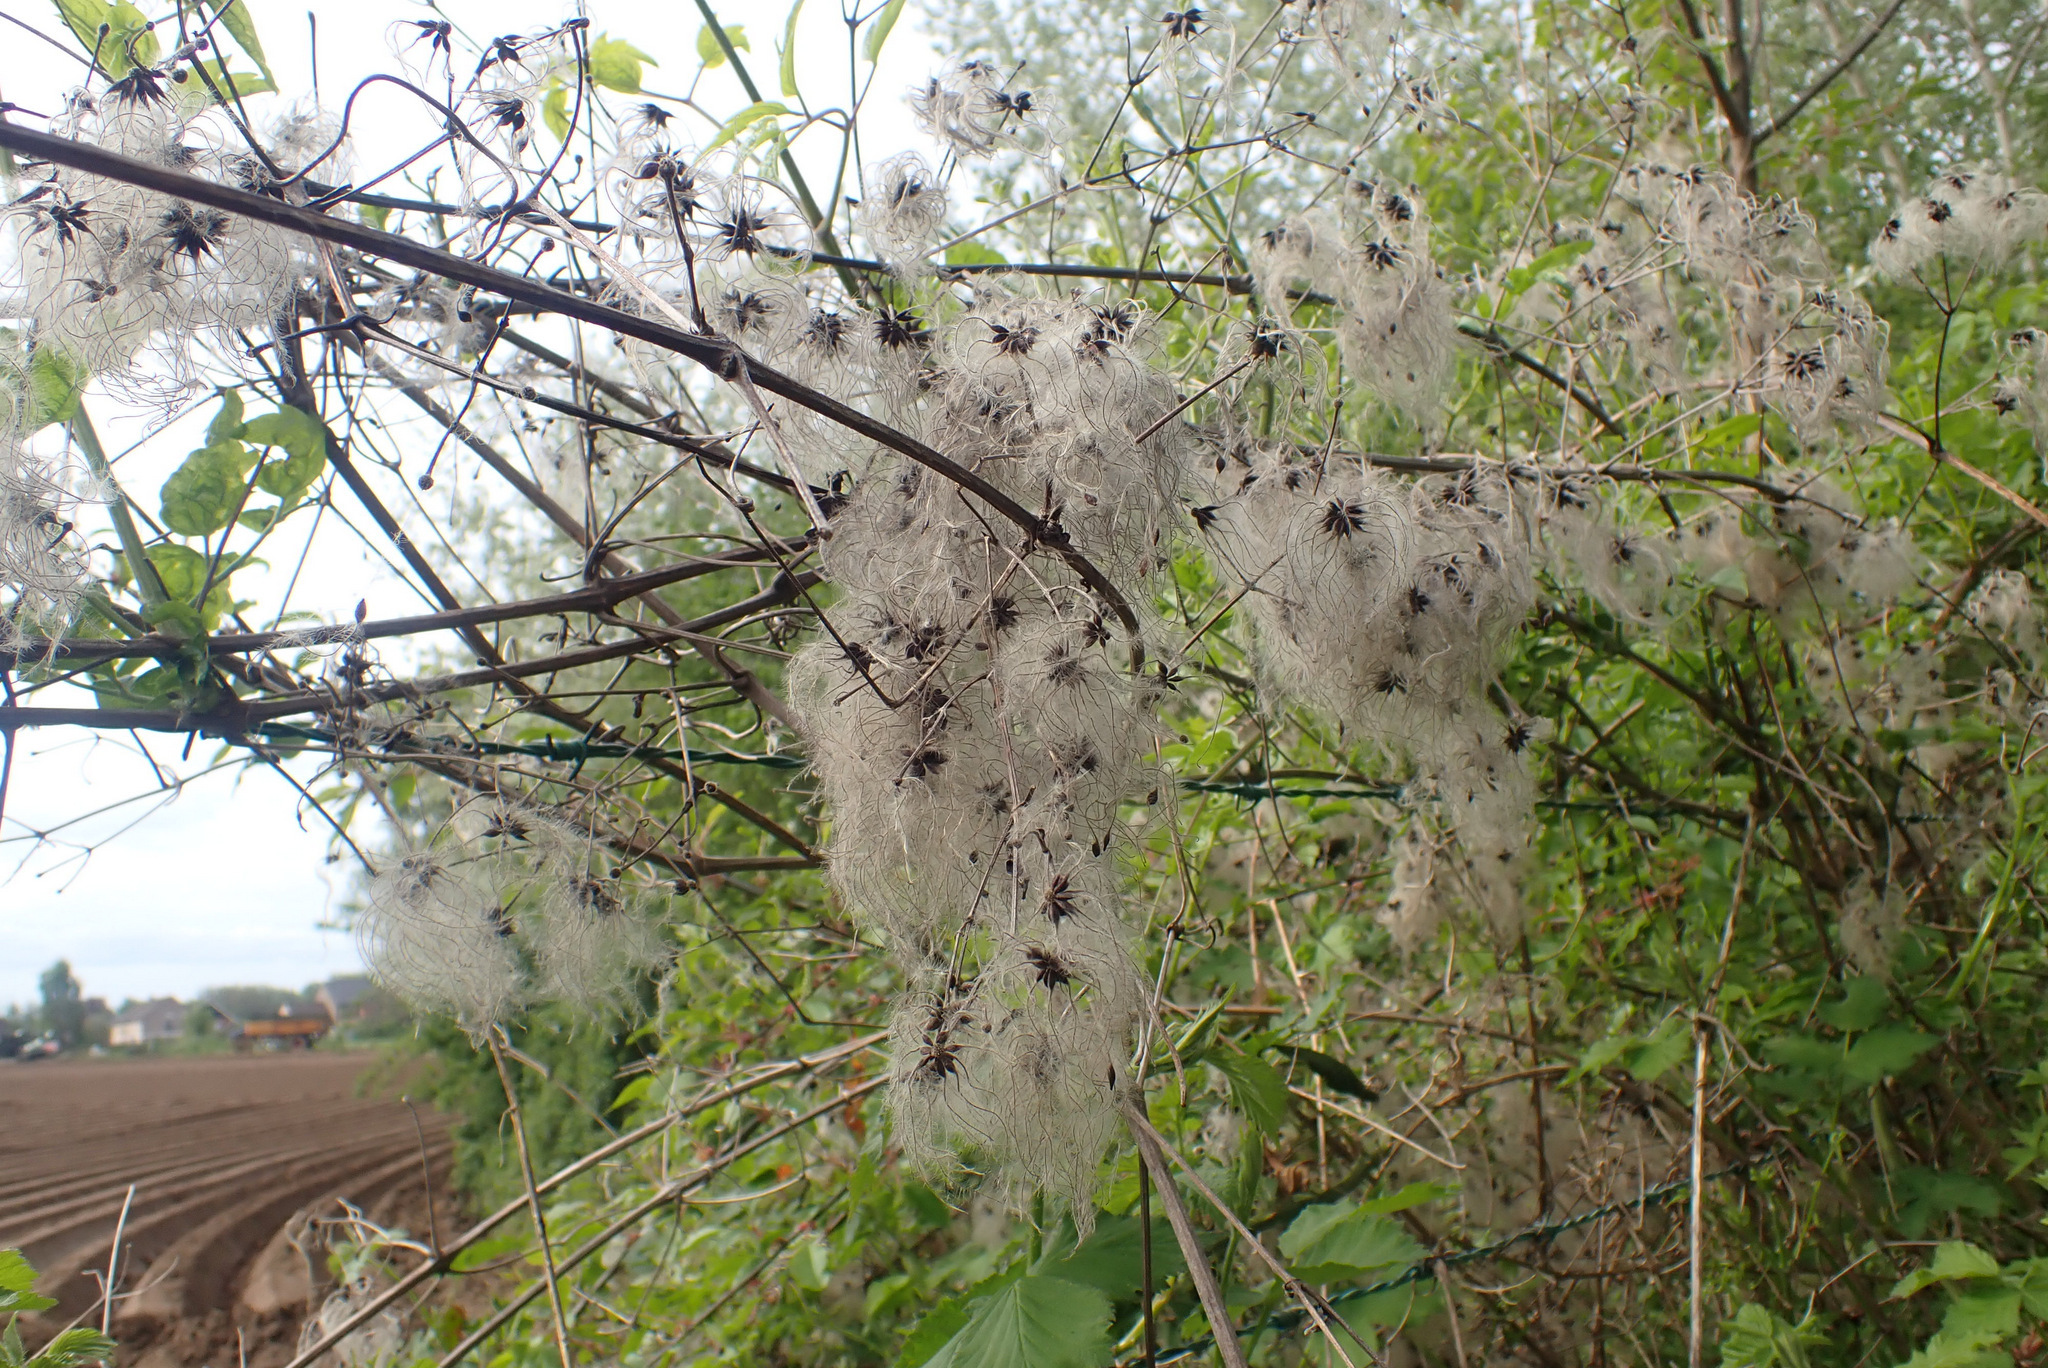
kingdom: Plantae
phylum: Tracheophyta
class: Magnoliopsida
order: Ranunculales
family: Ranunculaceae
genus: Clematis
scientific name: Clematis vitalba
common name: Evergreen clematis
